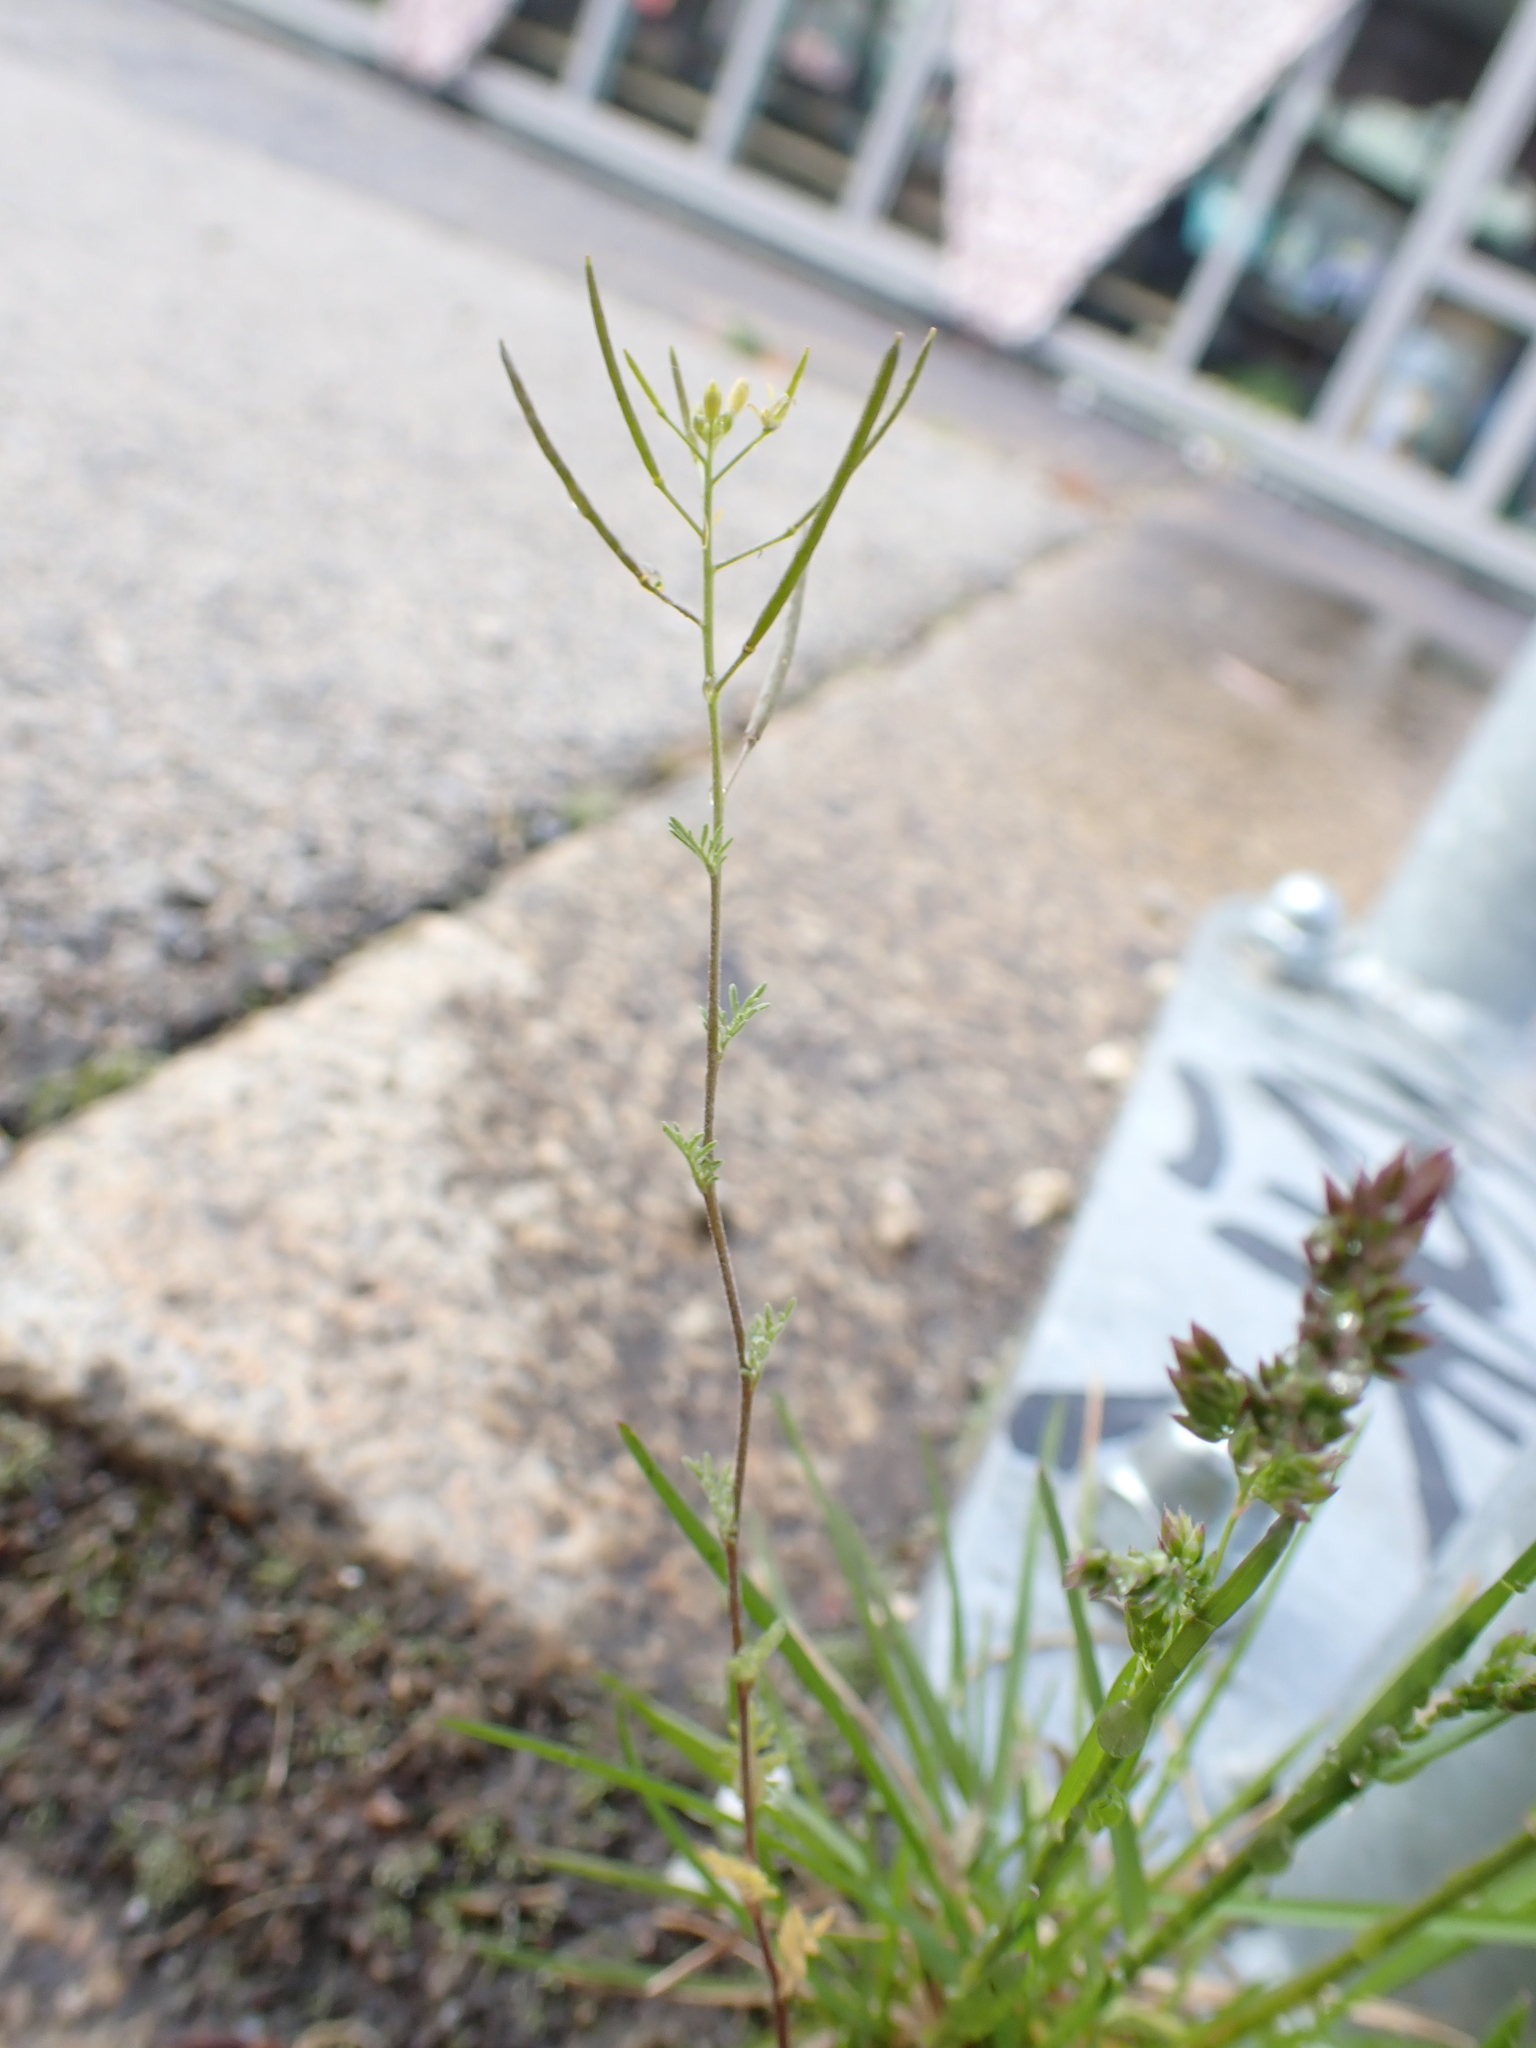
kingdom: Plantae
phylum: Tracheophyta
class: Magnoliopsida
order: Brassicales
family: Brassicaceae
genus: Descurainia
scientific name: Descurainia sophia
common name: Flixweed
